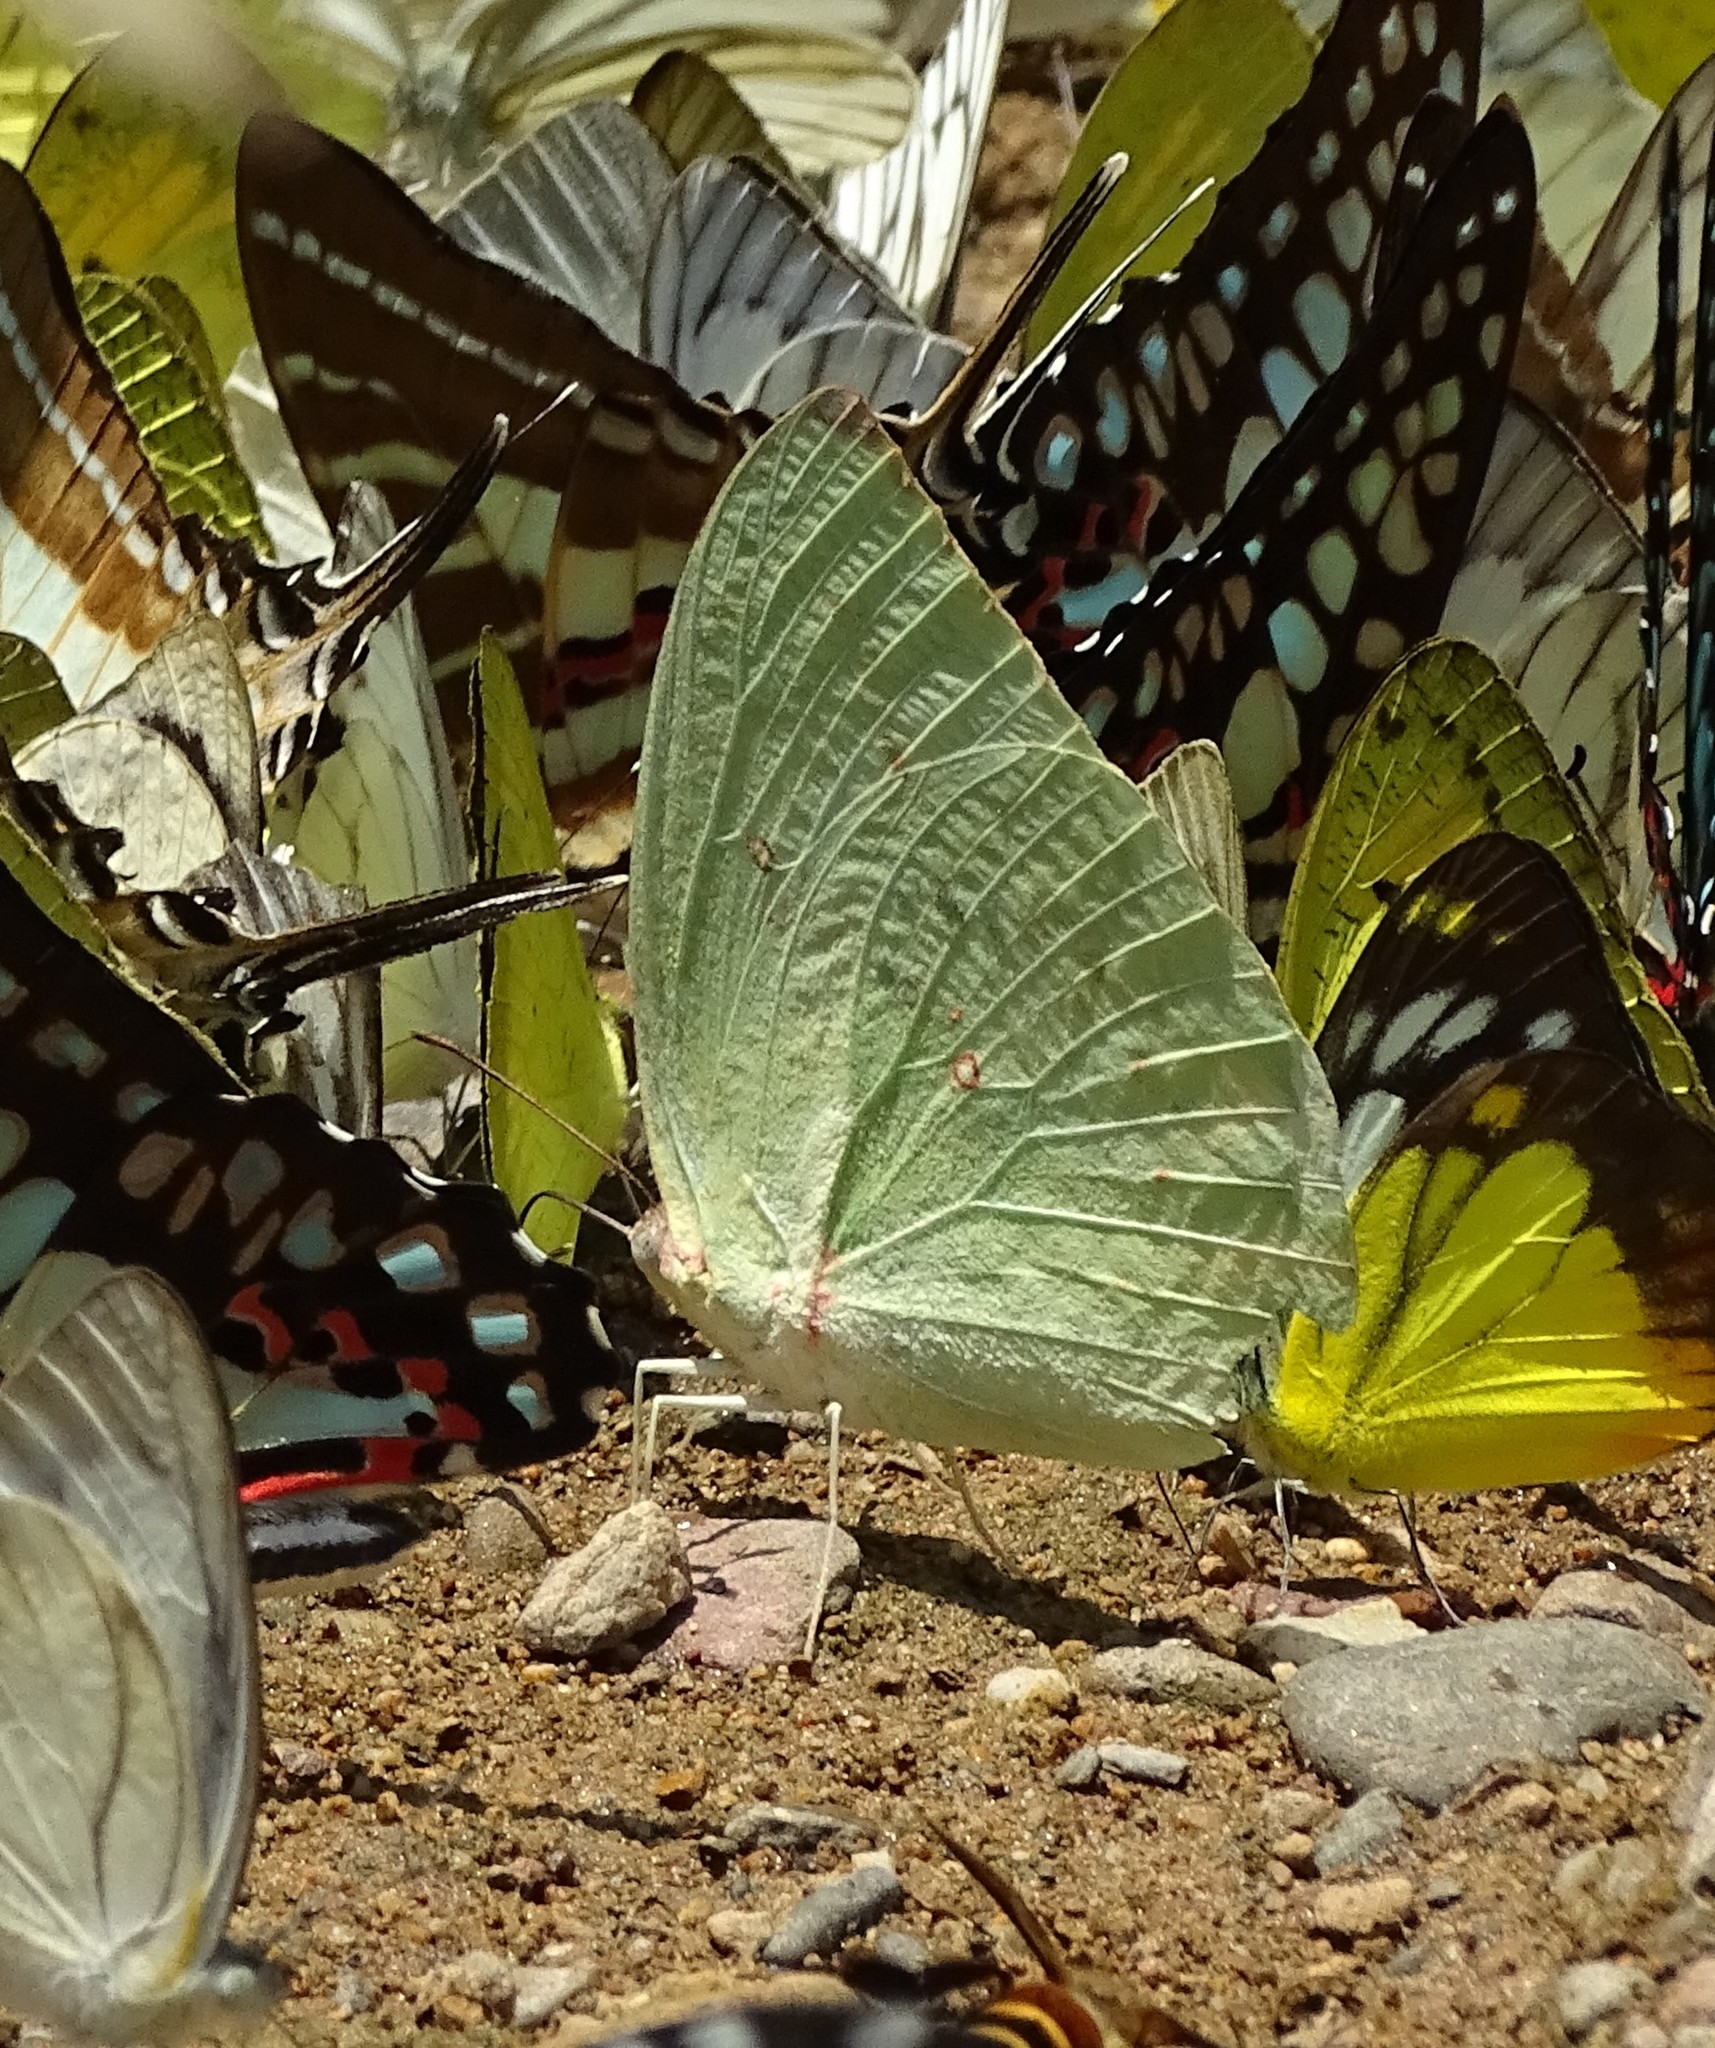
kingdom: Animalia
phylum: Arthropoda
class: Insecta
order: Lepidoptera
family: Pieridae
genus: Catopsilia
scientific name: Catopsilia pomona
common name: Common emigrant
